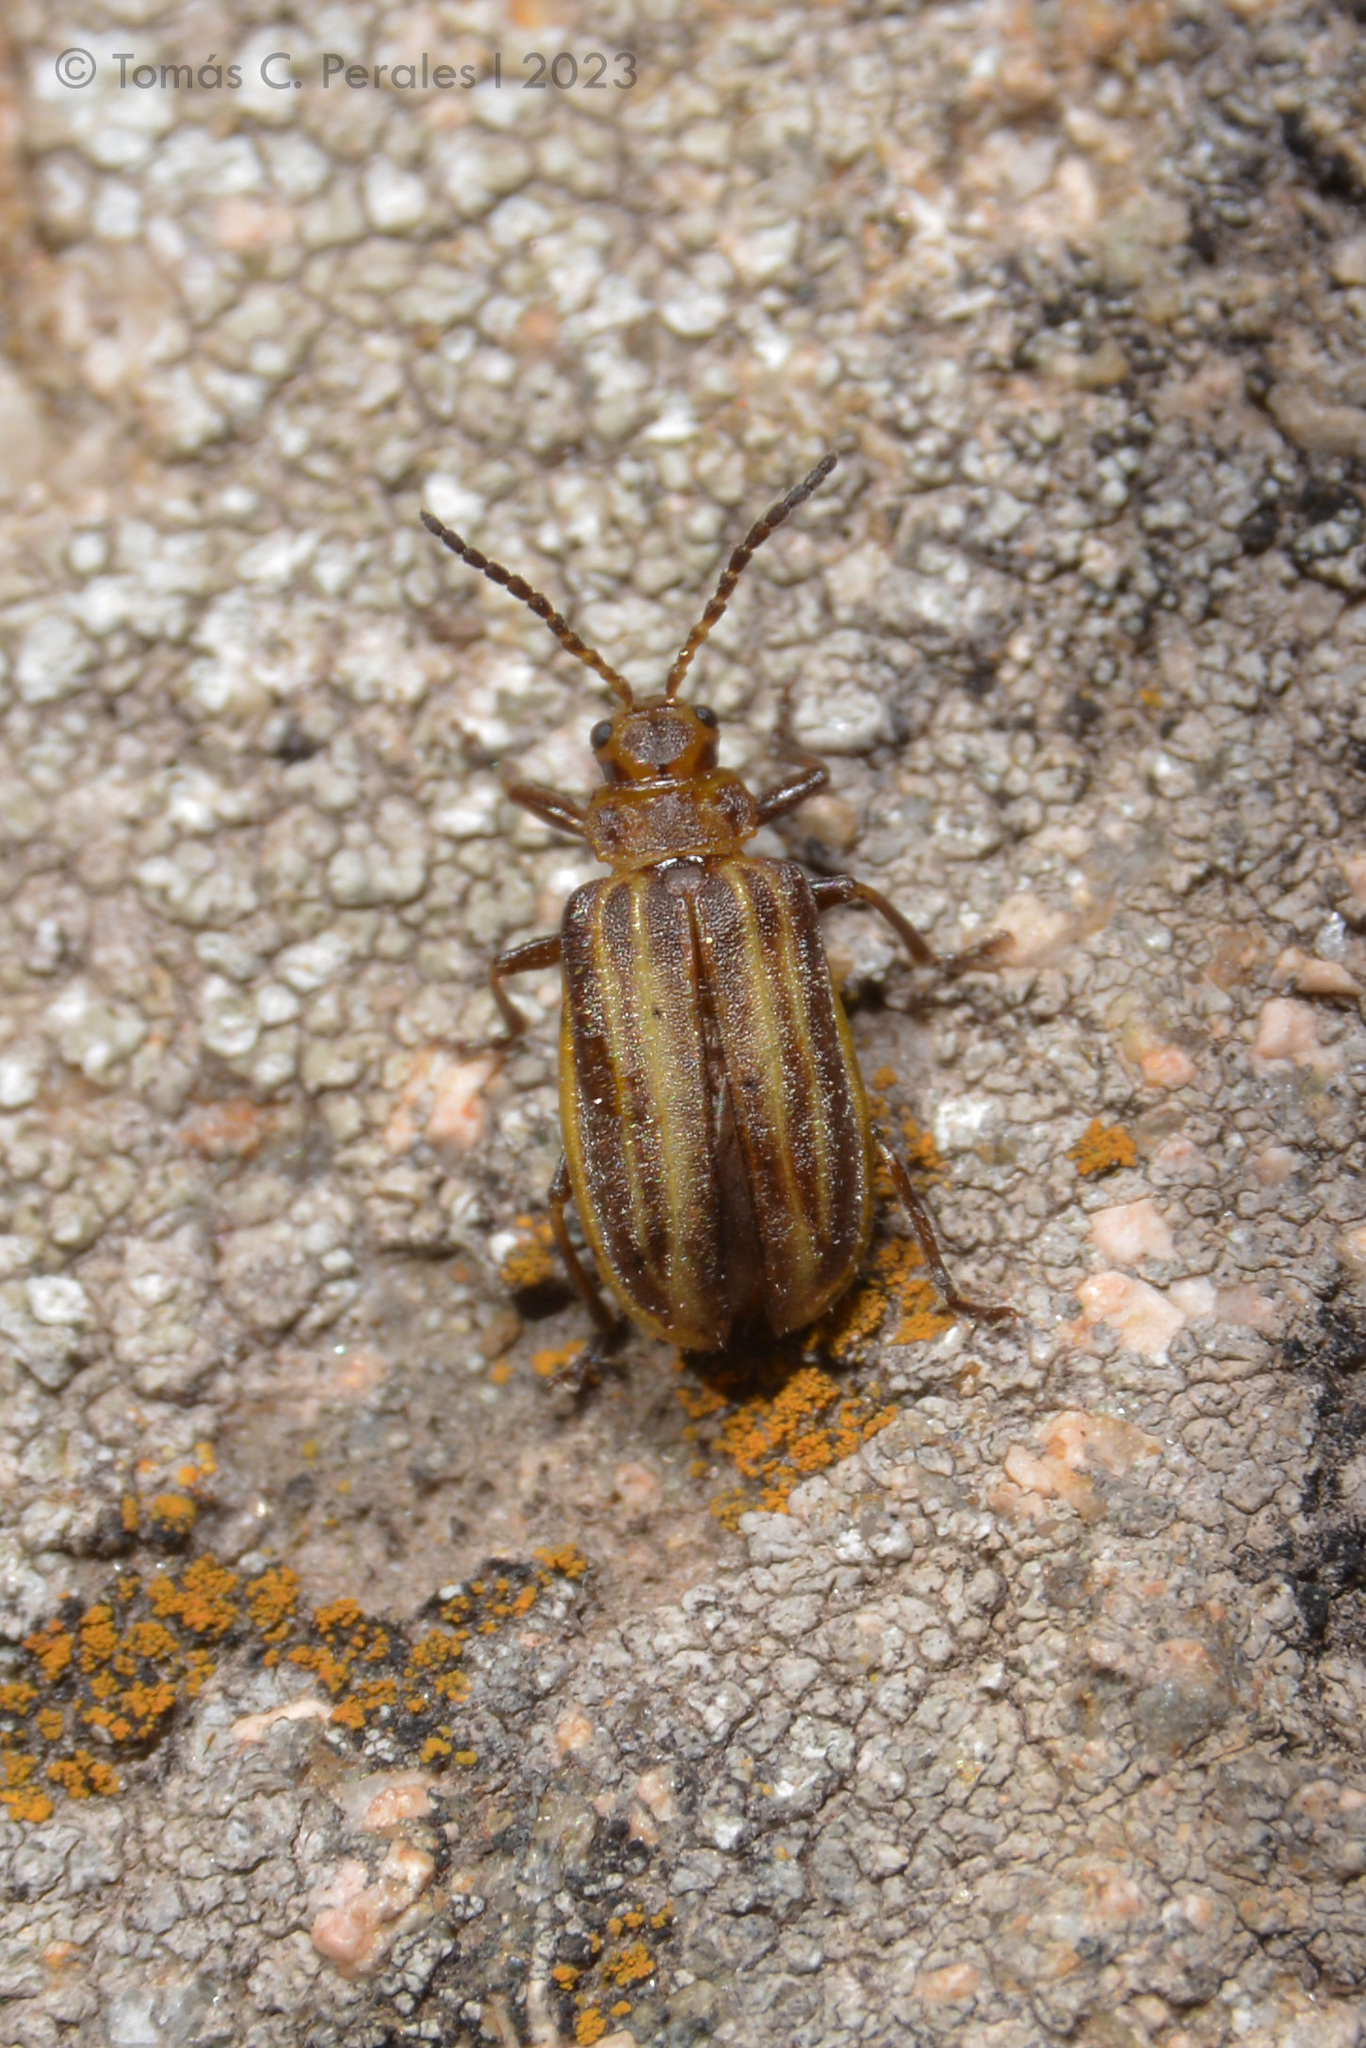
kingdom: Animalia
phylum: Arthropoda
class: Insecta
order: Coleoptera
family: Chrysomelidae
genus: Neolochmaea
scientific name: Neolochmaea
